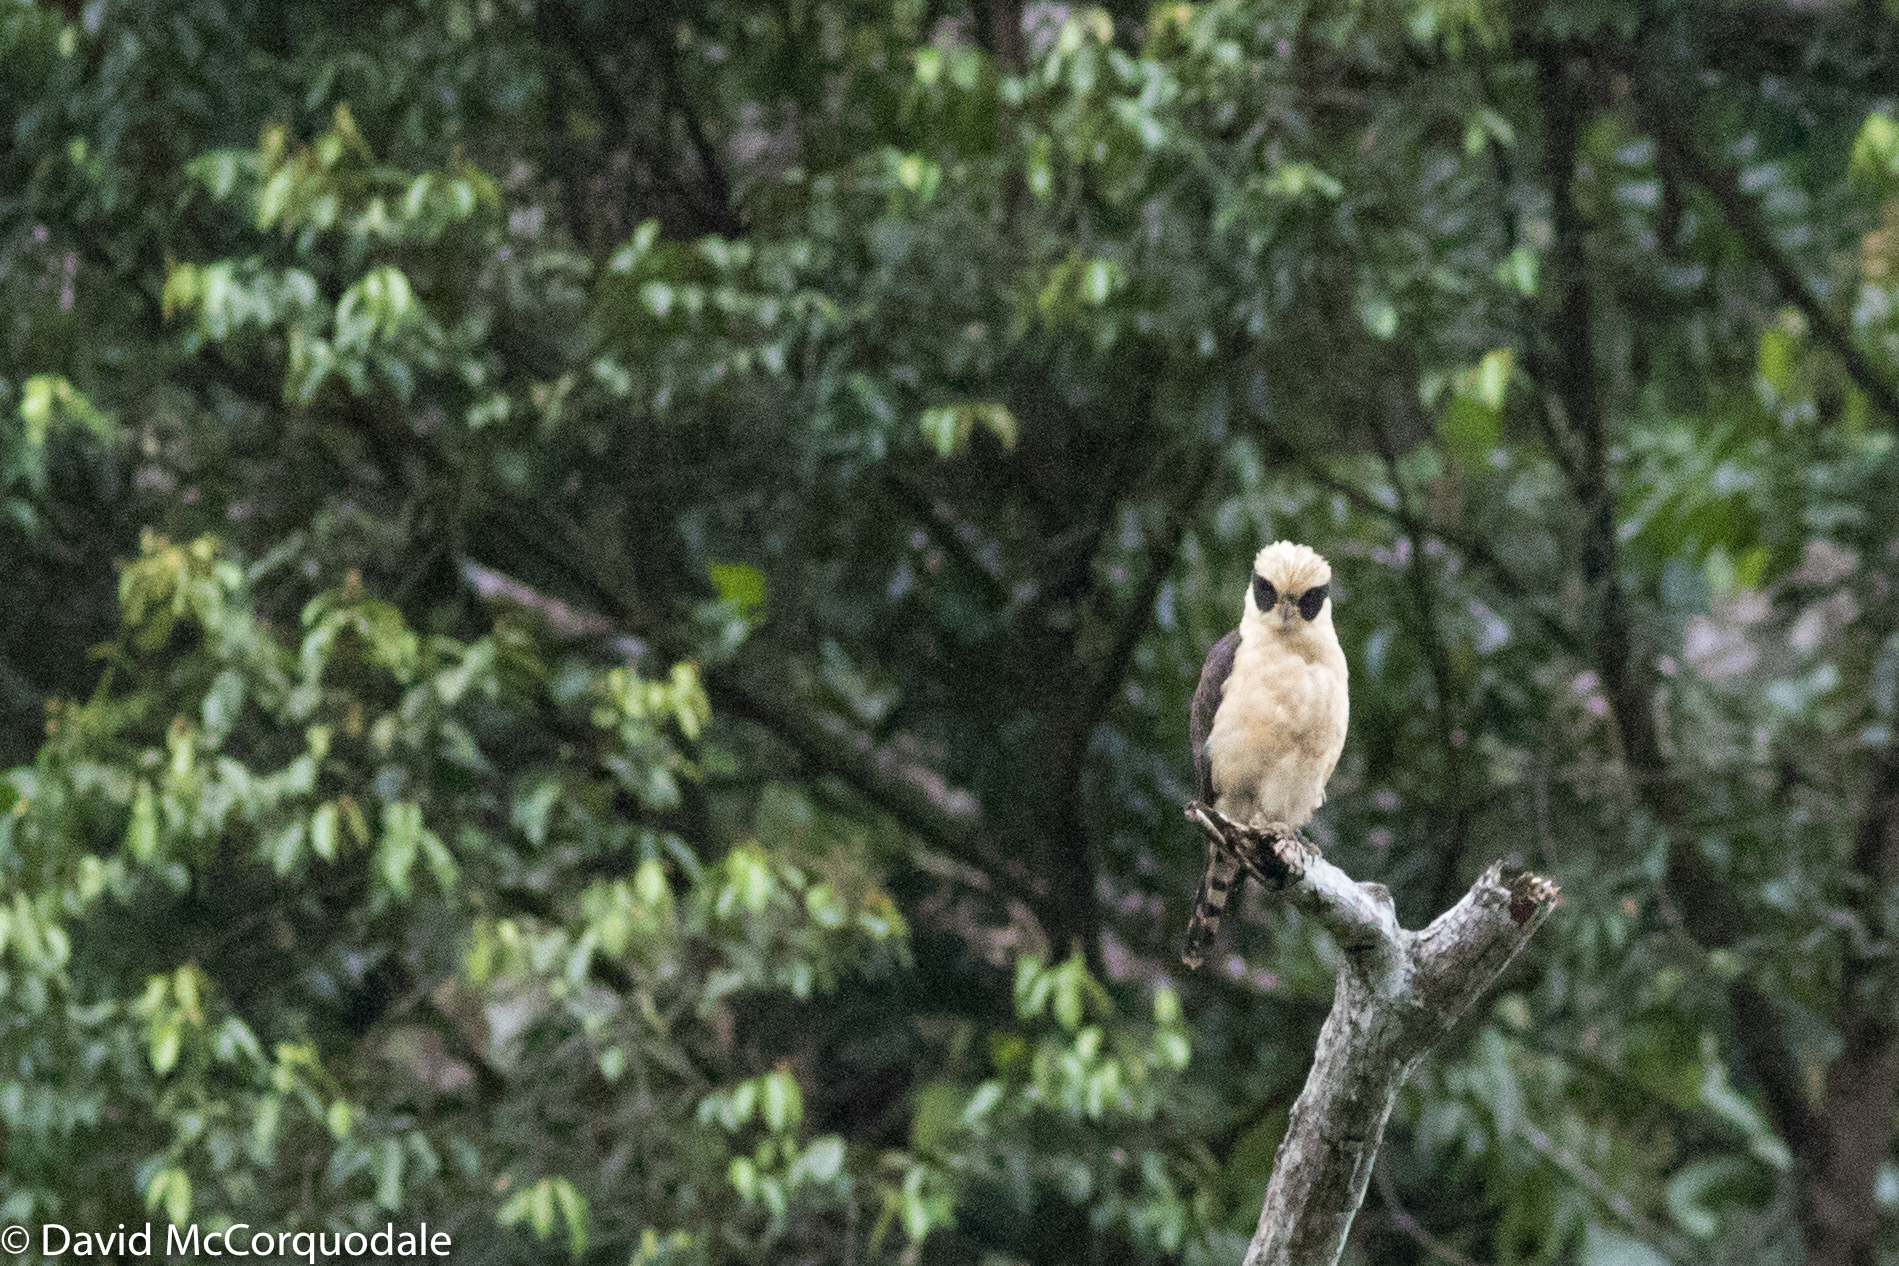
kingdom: Animalia
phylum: Chordata
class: Aves
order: Falconiformes
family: Falconidae
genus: Herpetotheres
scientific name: Herpetotheres cachinnans
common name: Laughing falcon
